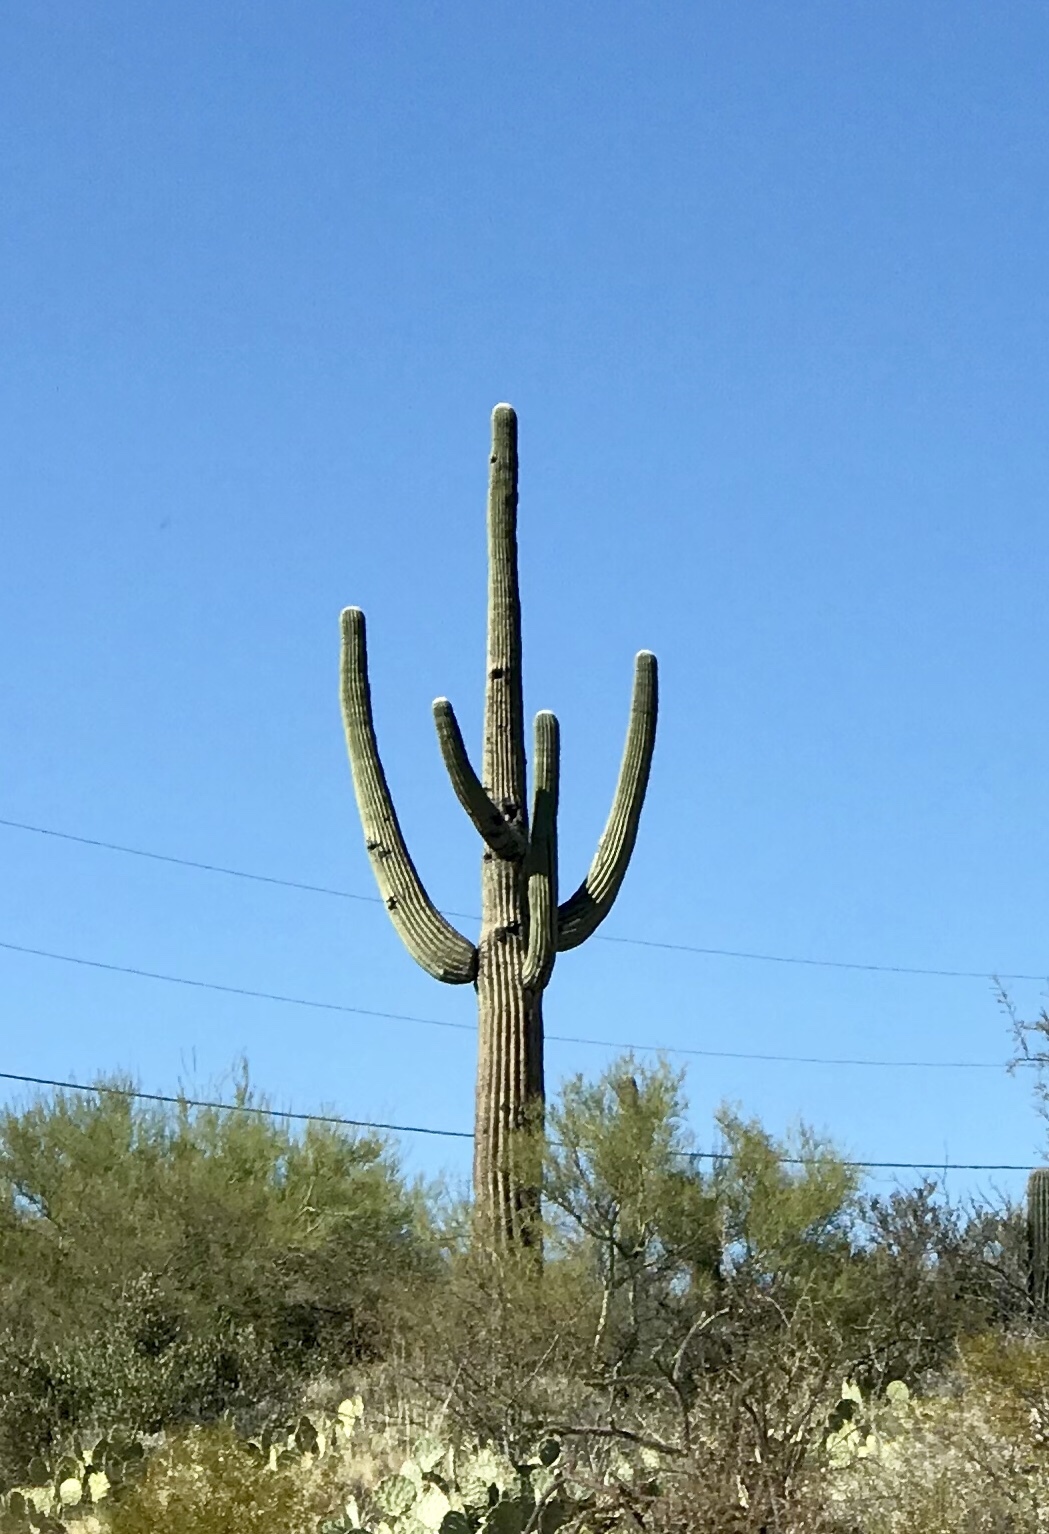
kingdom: Plantae
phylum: Tracheophyta
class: Magnoliopsida
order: Caryophyllales
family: Cactaceae
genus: Carnegiea
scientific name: Carnegiea gigantea
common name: Saguaro
